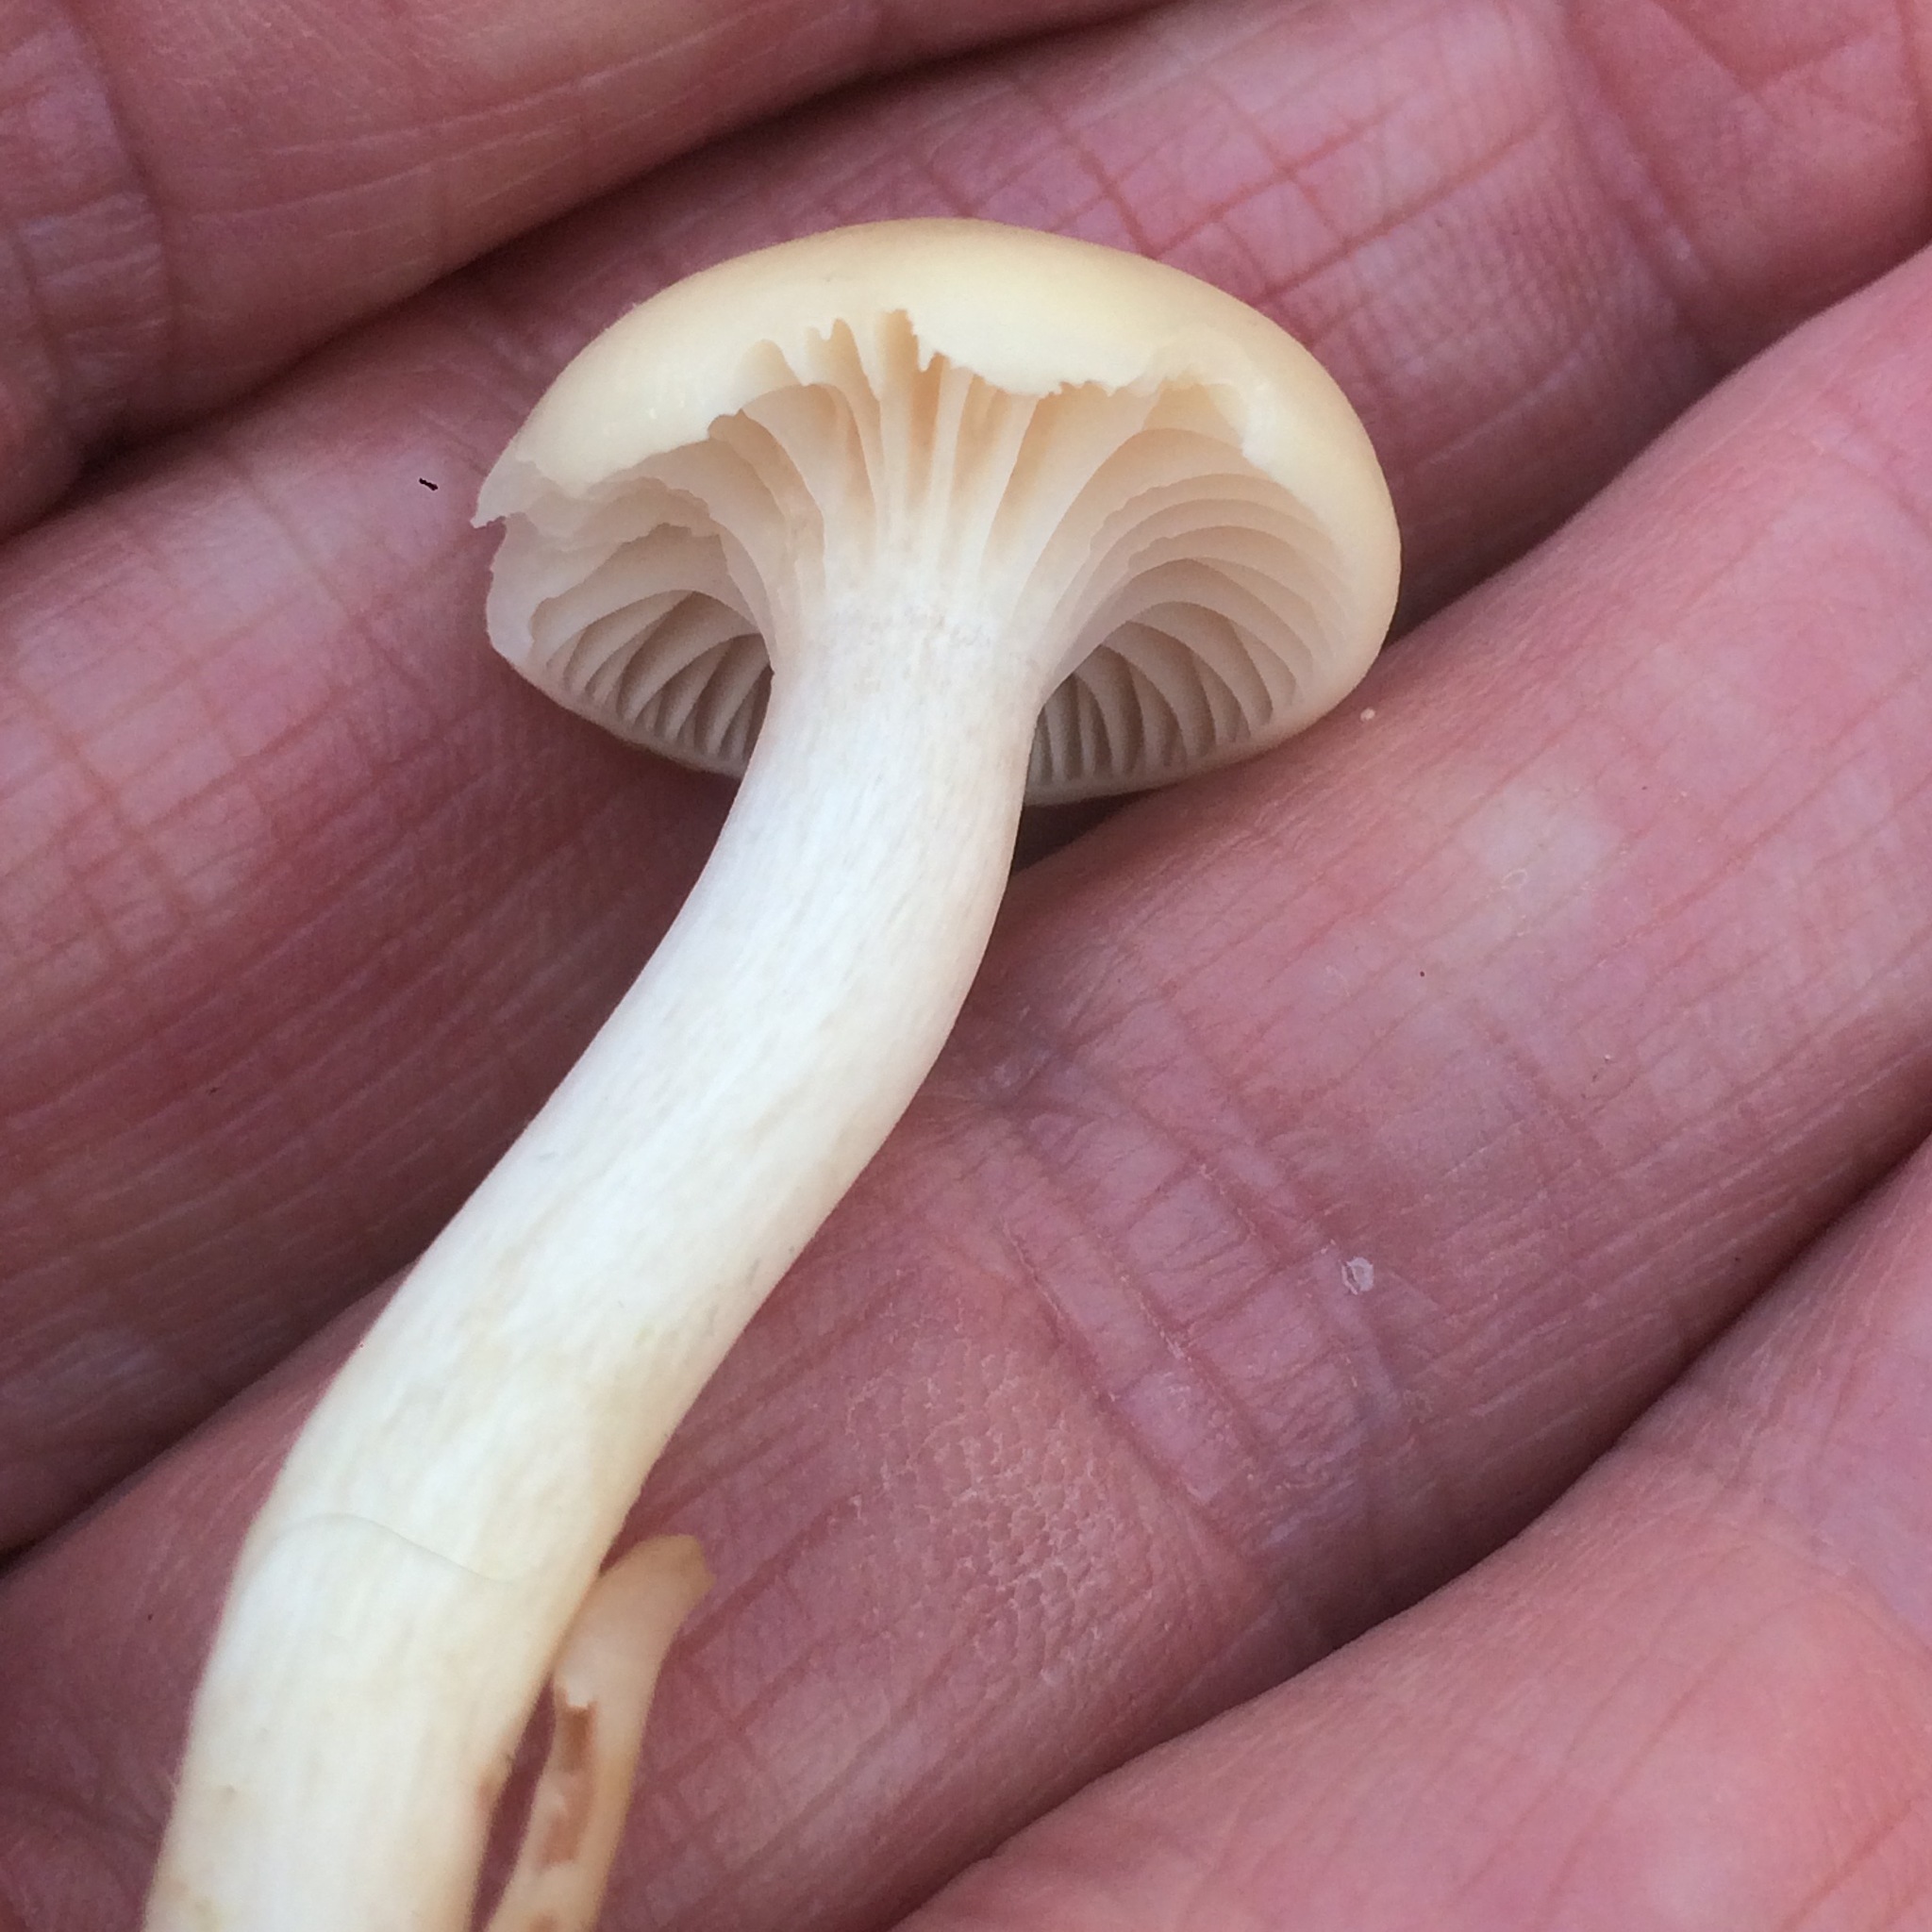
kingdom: Fungi
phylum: Basidiomycota
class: Agaricomycetes
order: Agaricales
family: Hygrophoraceae
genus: Cuphophyllus
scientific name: Cuphophyllus virgineus
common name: Snowy waxcap
